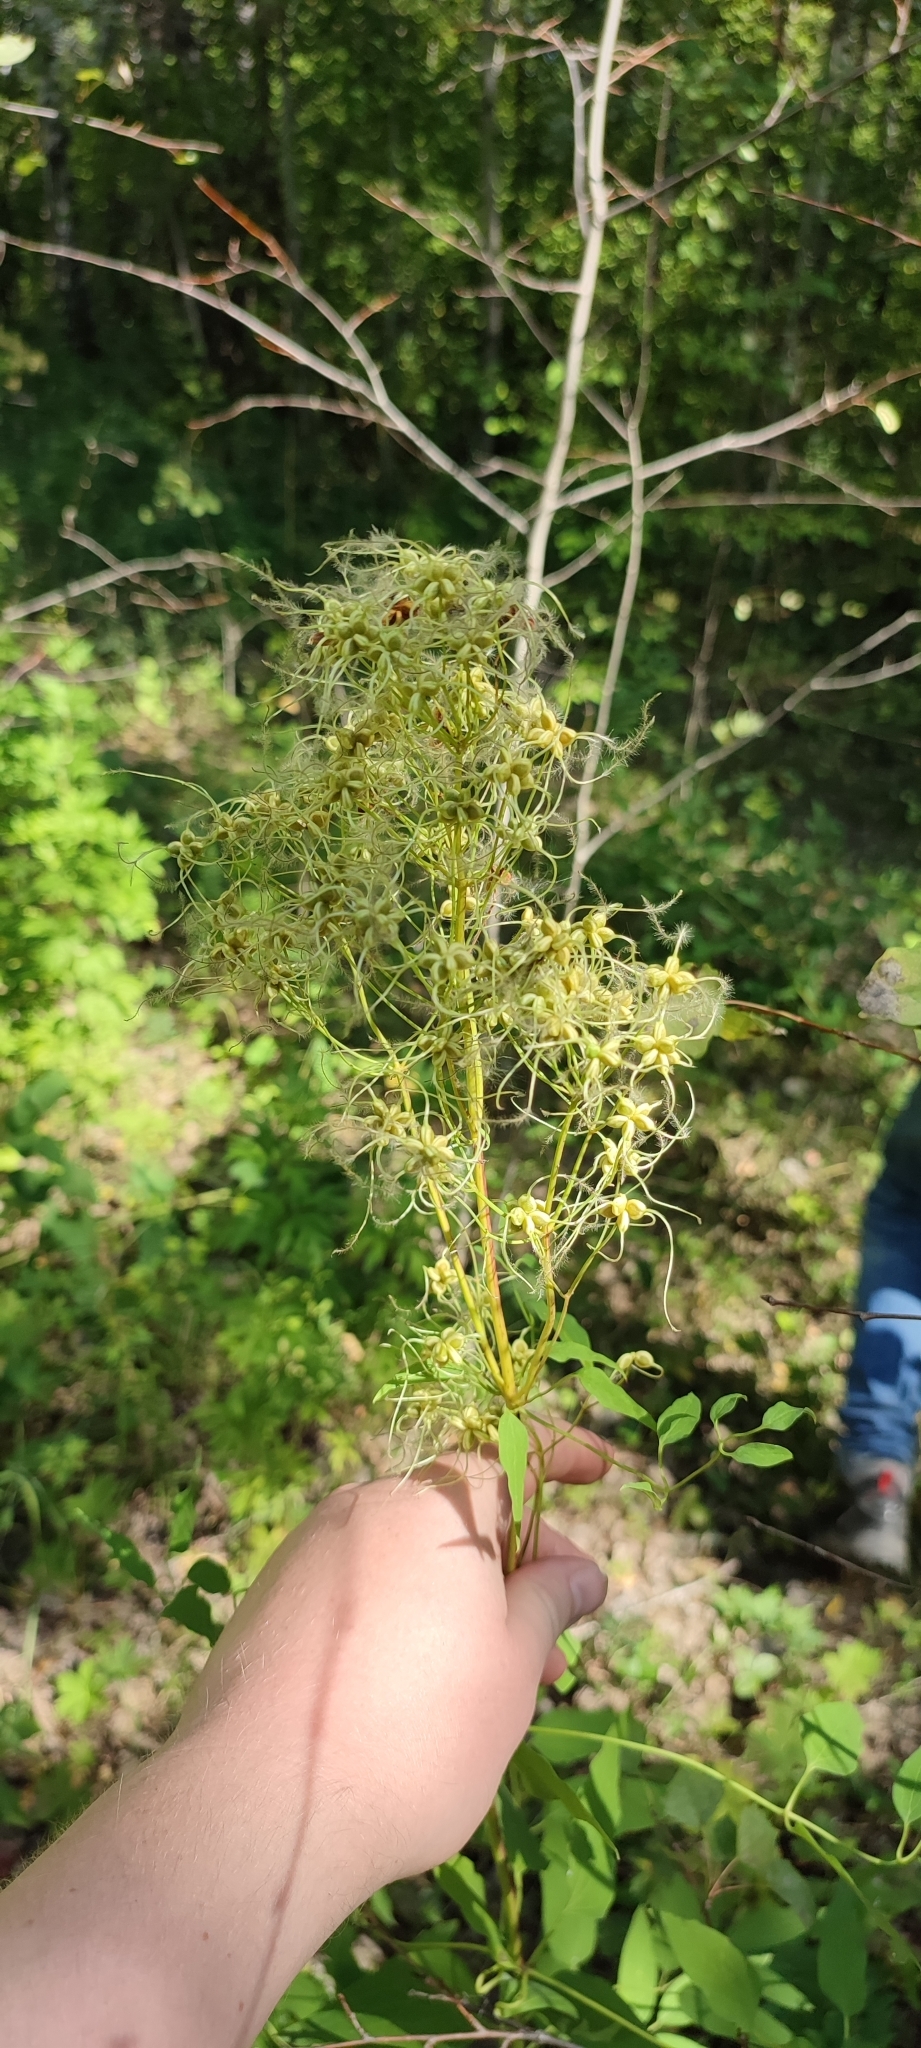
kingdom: Plantae
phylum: Tracheophyta
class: Magnoliopsida
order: Ranunculales
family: Ranunculaceae
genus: Clematis
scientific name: Clematis recta
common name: Ground clematis
